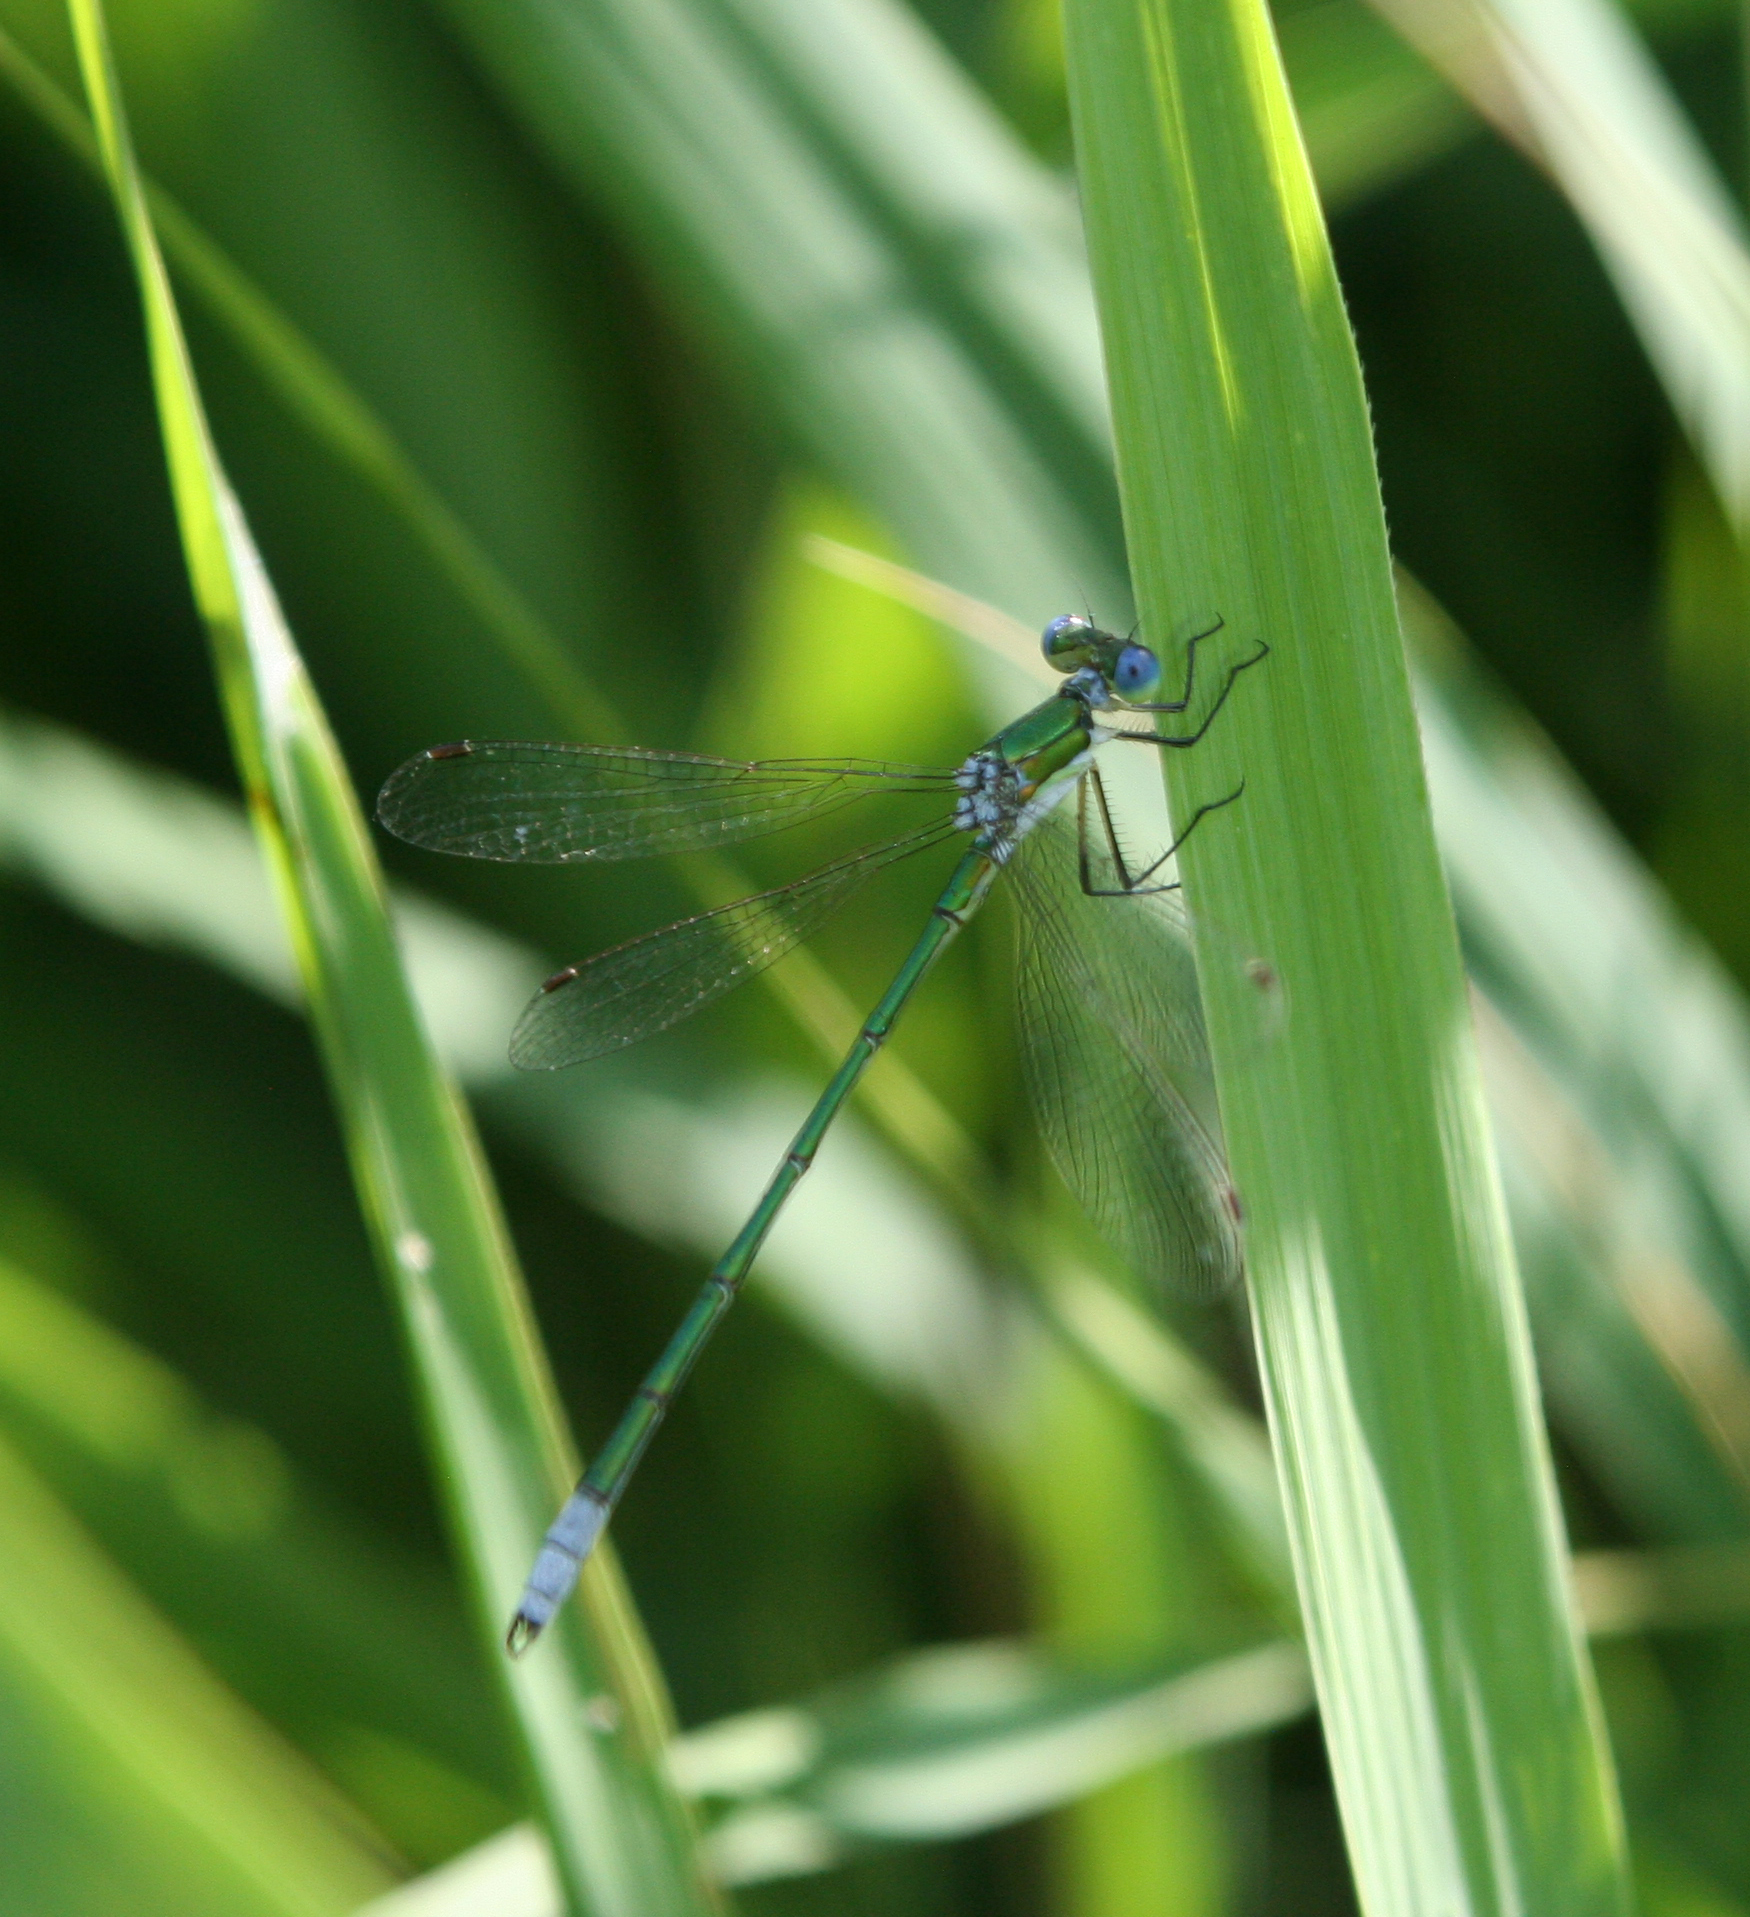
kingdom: Animalia
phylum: Arthropoda
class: Insecta
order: Odonata
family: Lestidae
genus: Lestes
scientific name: Lestes virens
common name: Small emerald spreadwing
